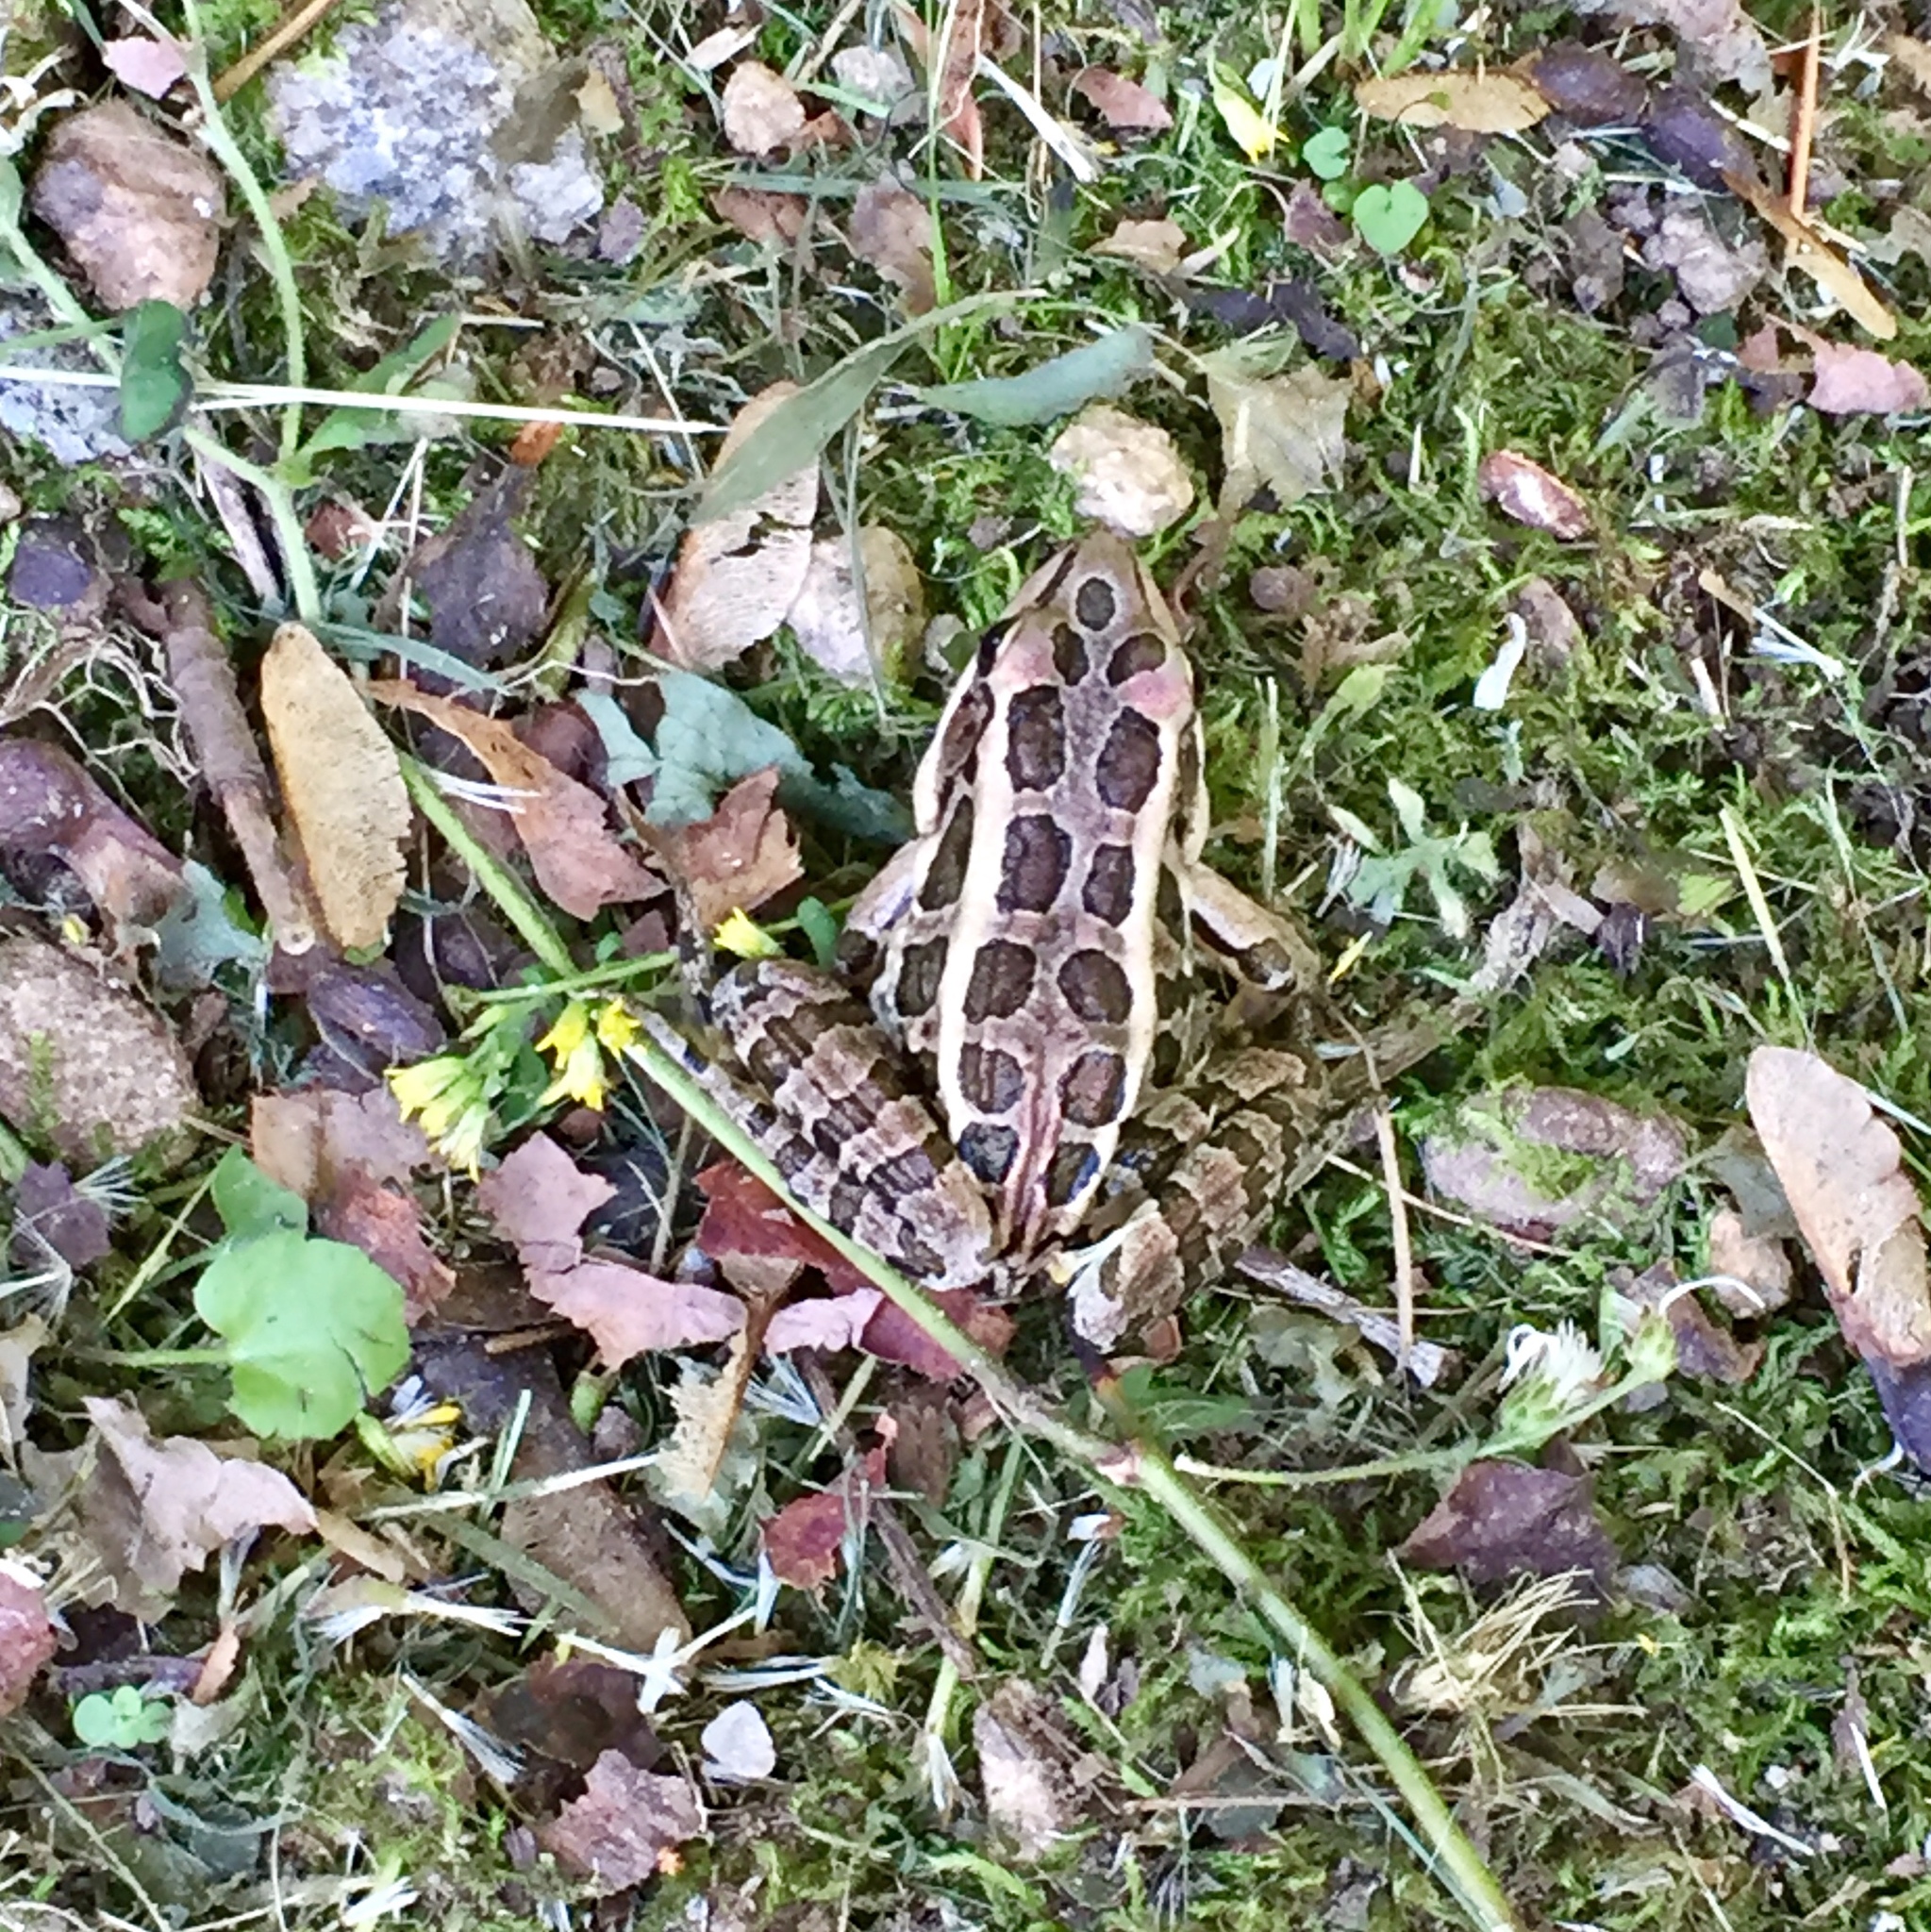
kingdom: Animalia
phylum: Chordata
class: Amphibia
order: Anura
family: Ranidae
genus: Lithobates
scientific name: Lithobates palustris
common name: Pickerel frog
